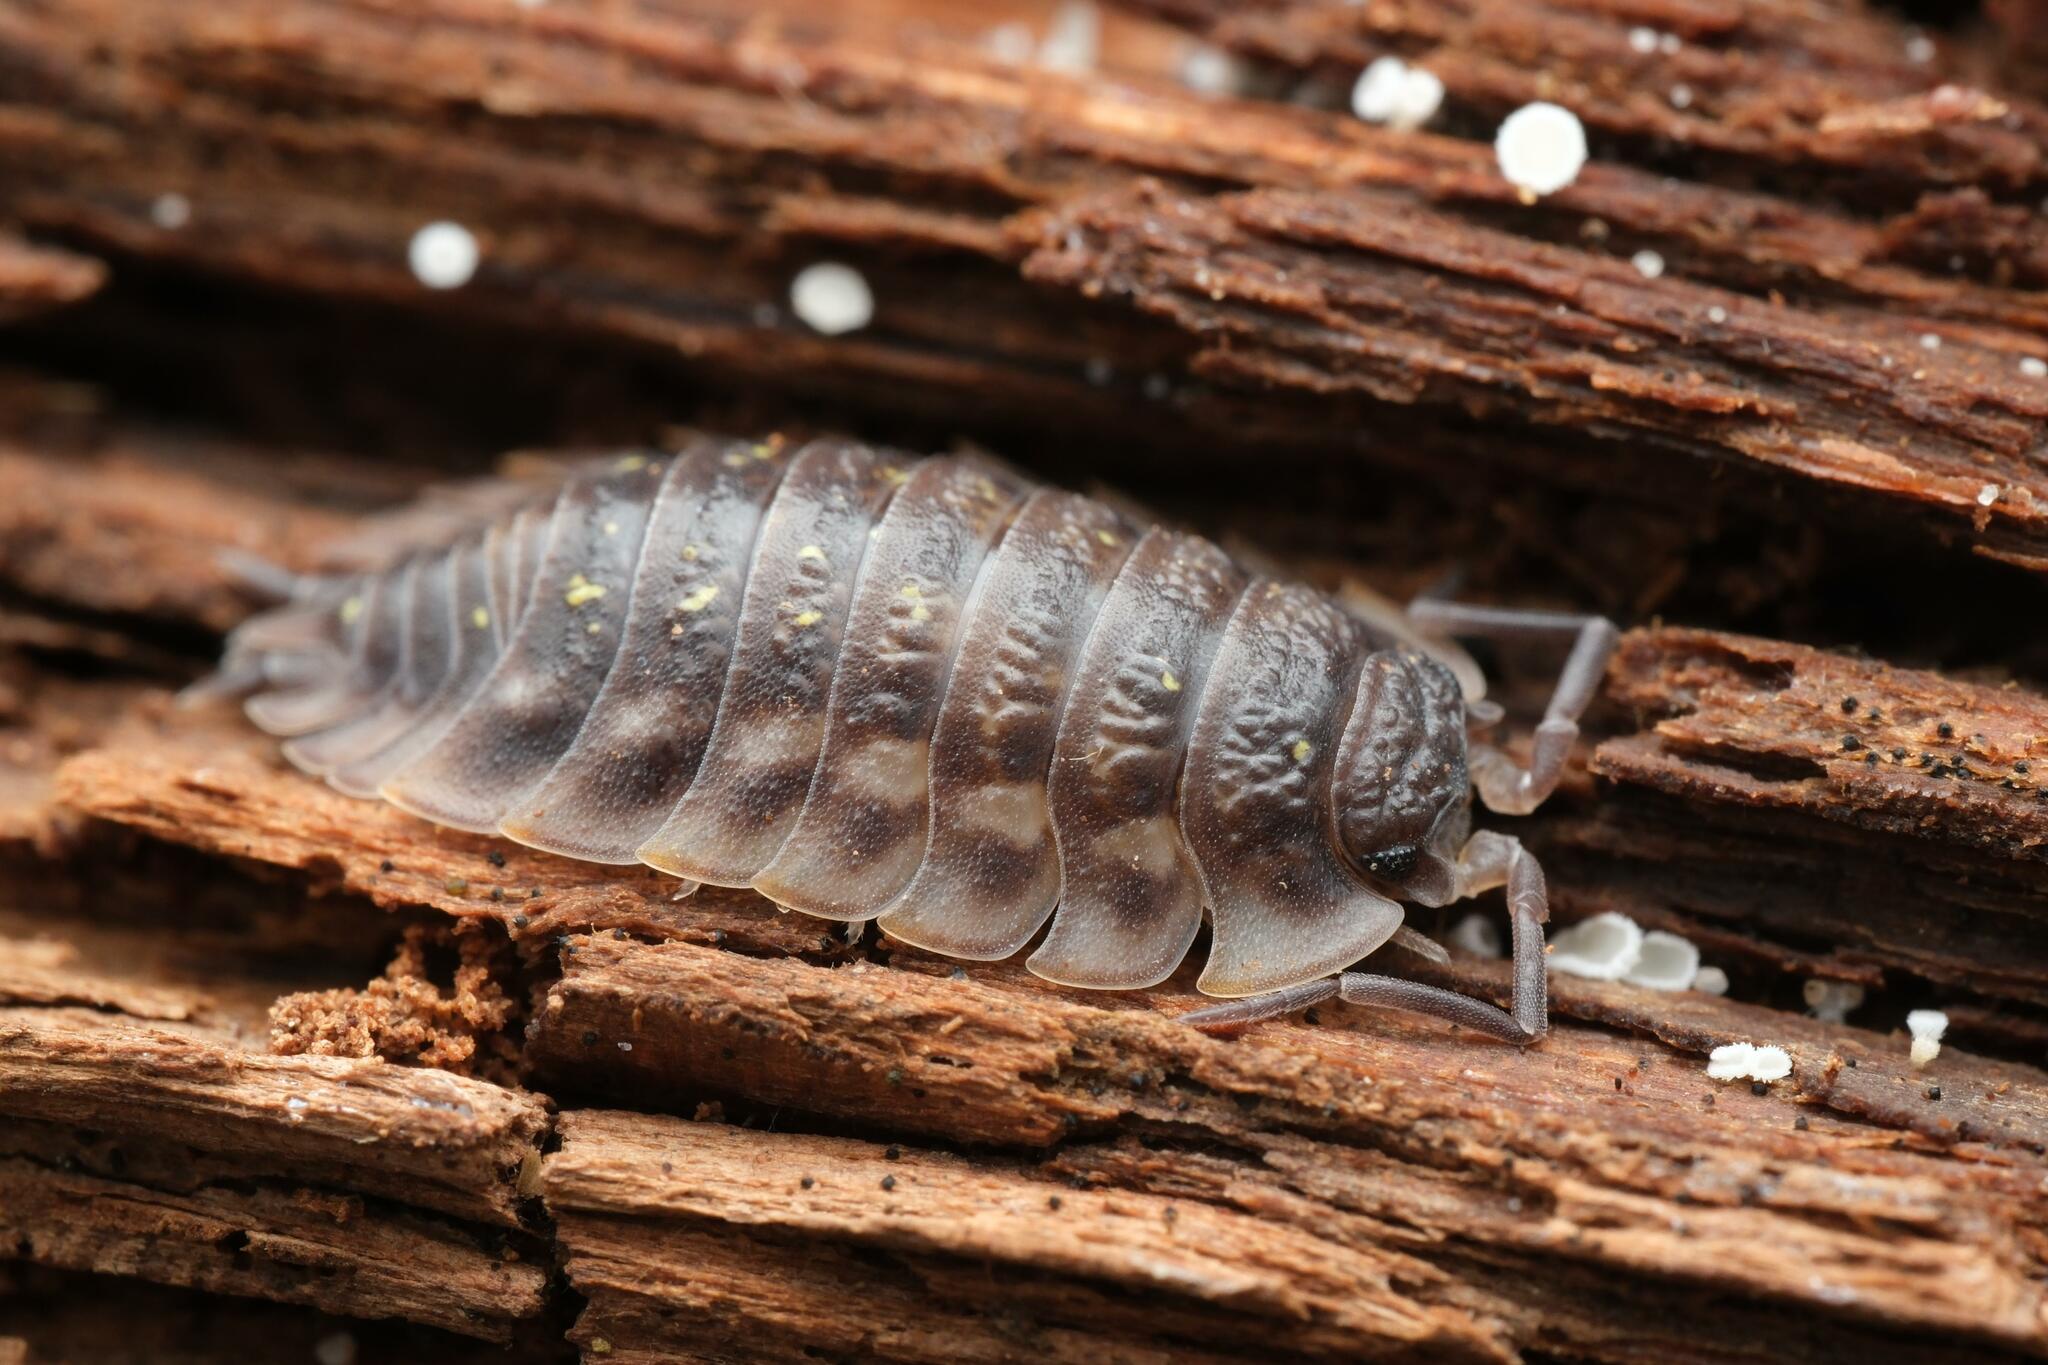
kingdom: Animalia
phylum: Arthropoda
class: Malacostraca
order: Isopoda
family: Oniscidae
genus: Oniscus
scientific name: Oniscus asellus
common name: Common shiny woodlouse
